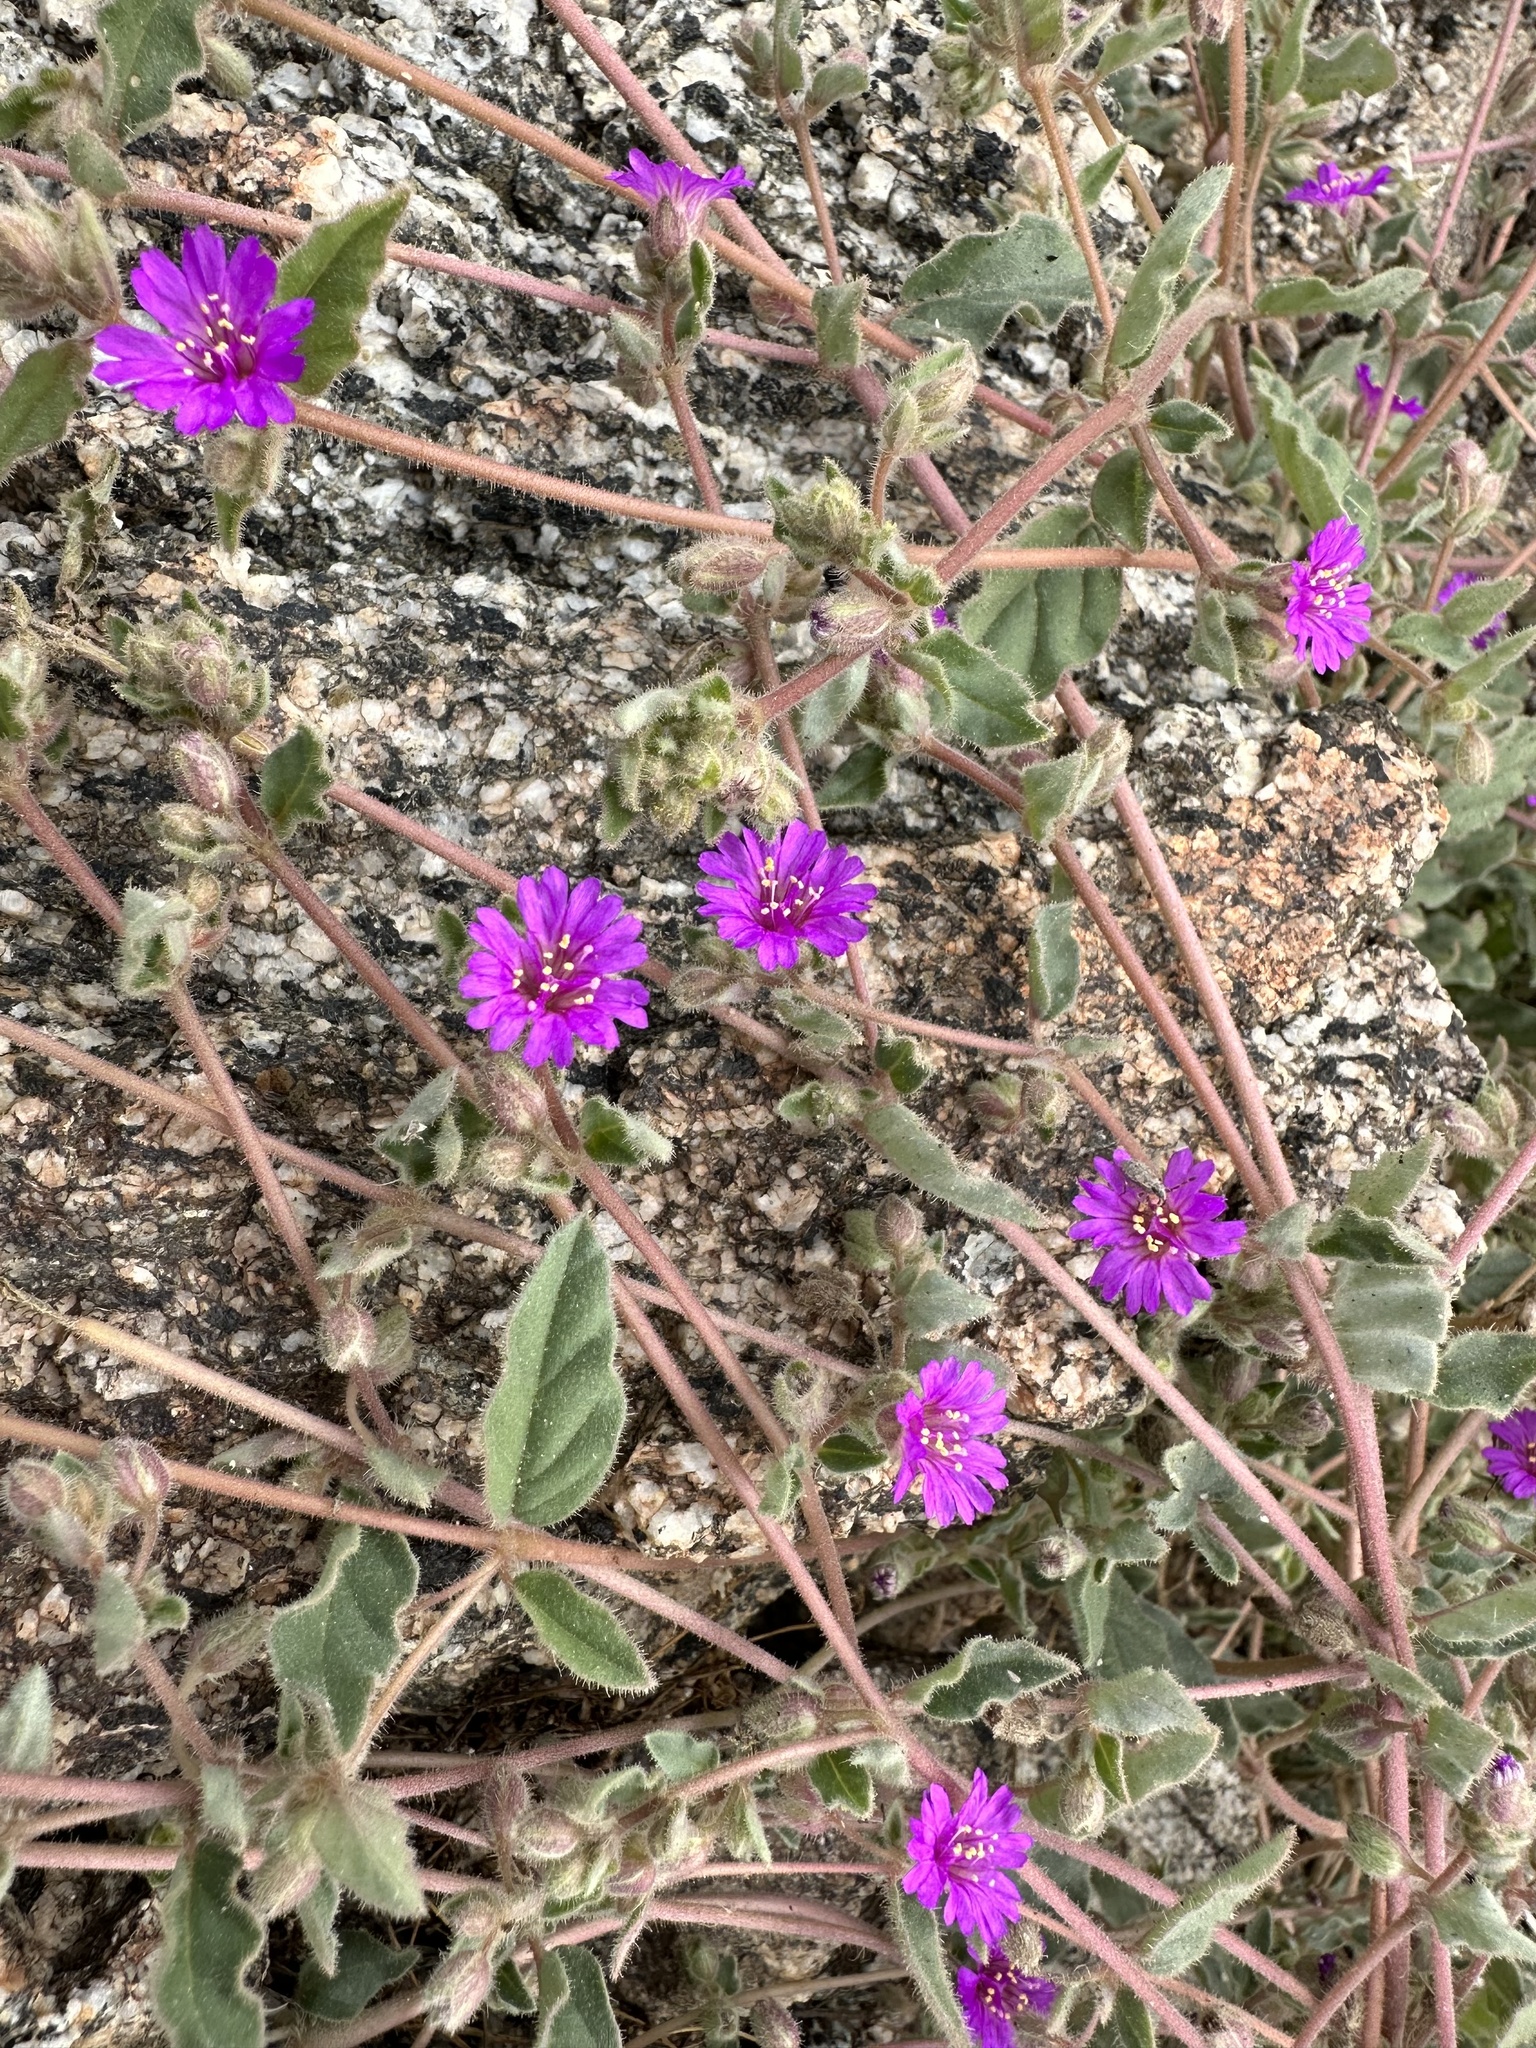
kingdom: Plantae
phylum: Tracheophyta
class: Magnoliopsida
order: Caryophyllales
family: Nyctaginaceae
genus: Allionia
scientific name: Allionia incarnata
